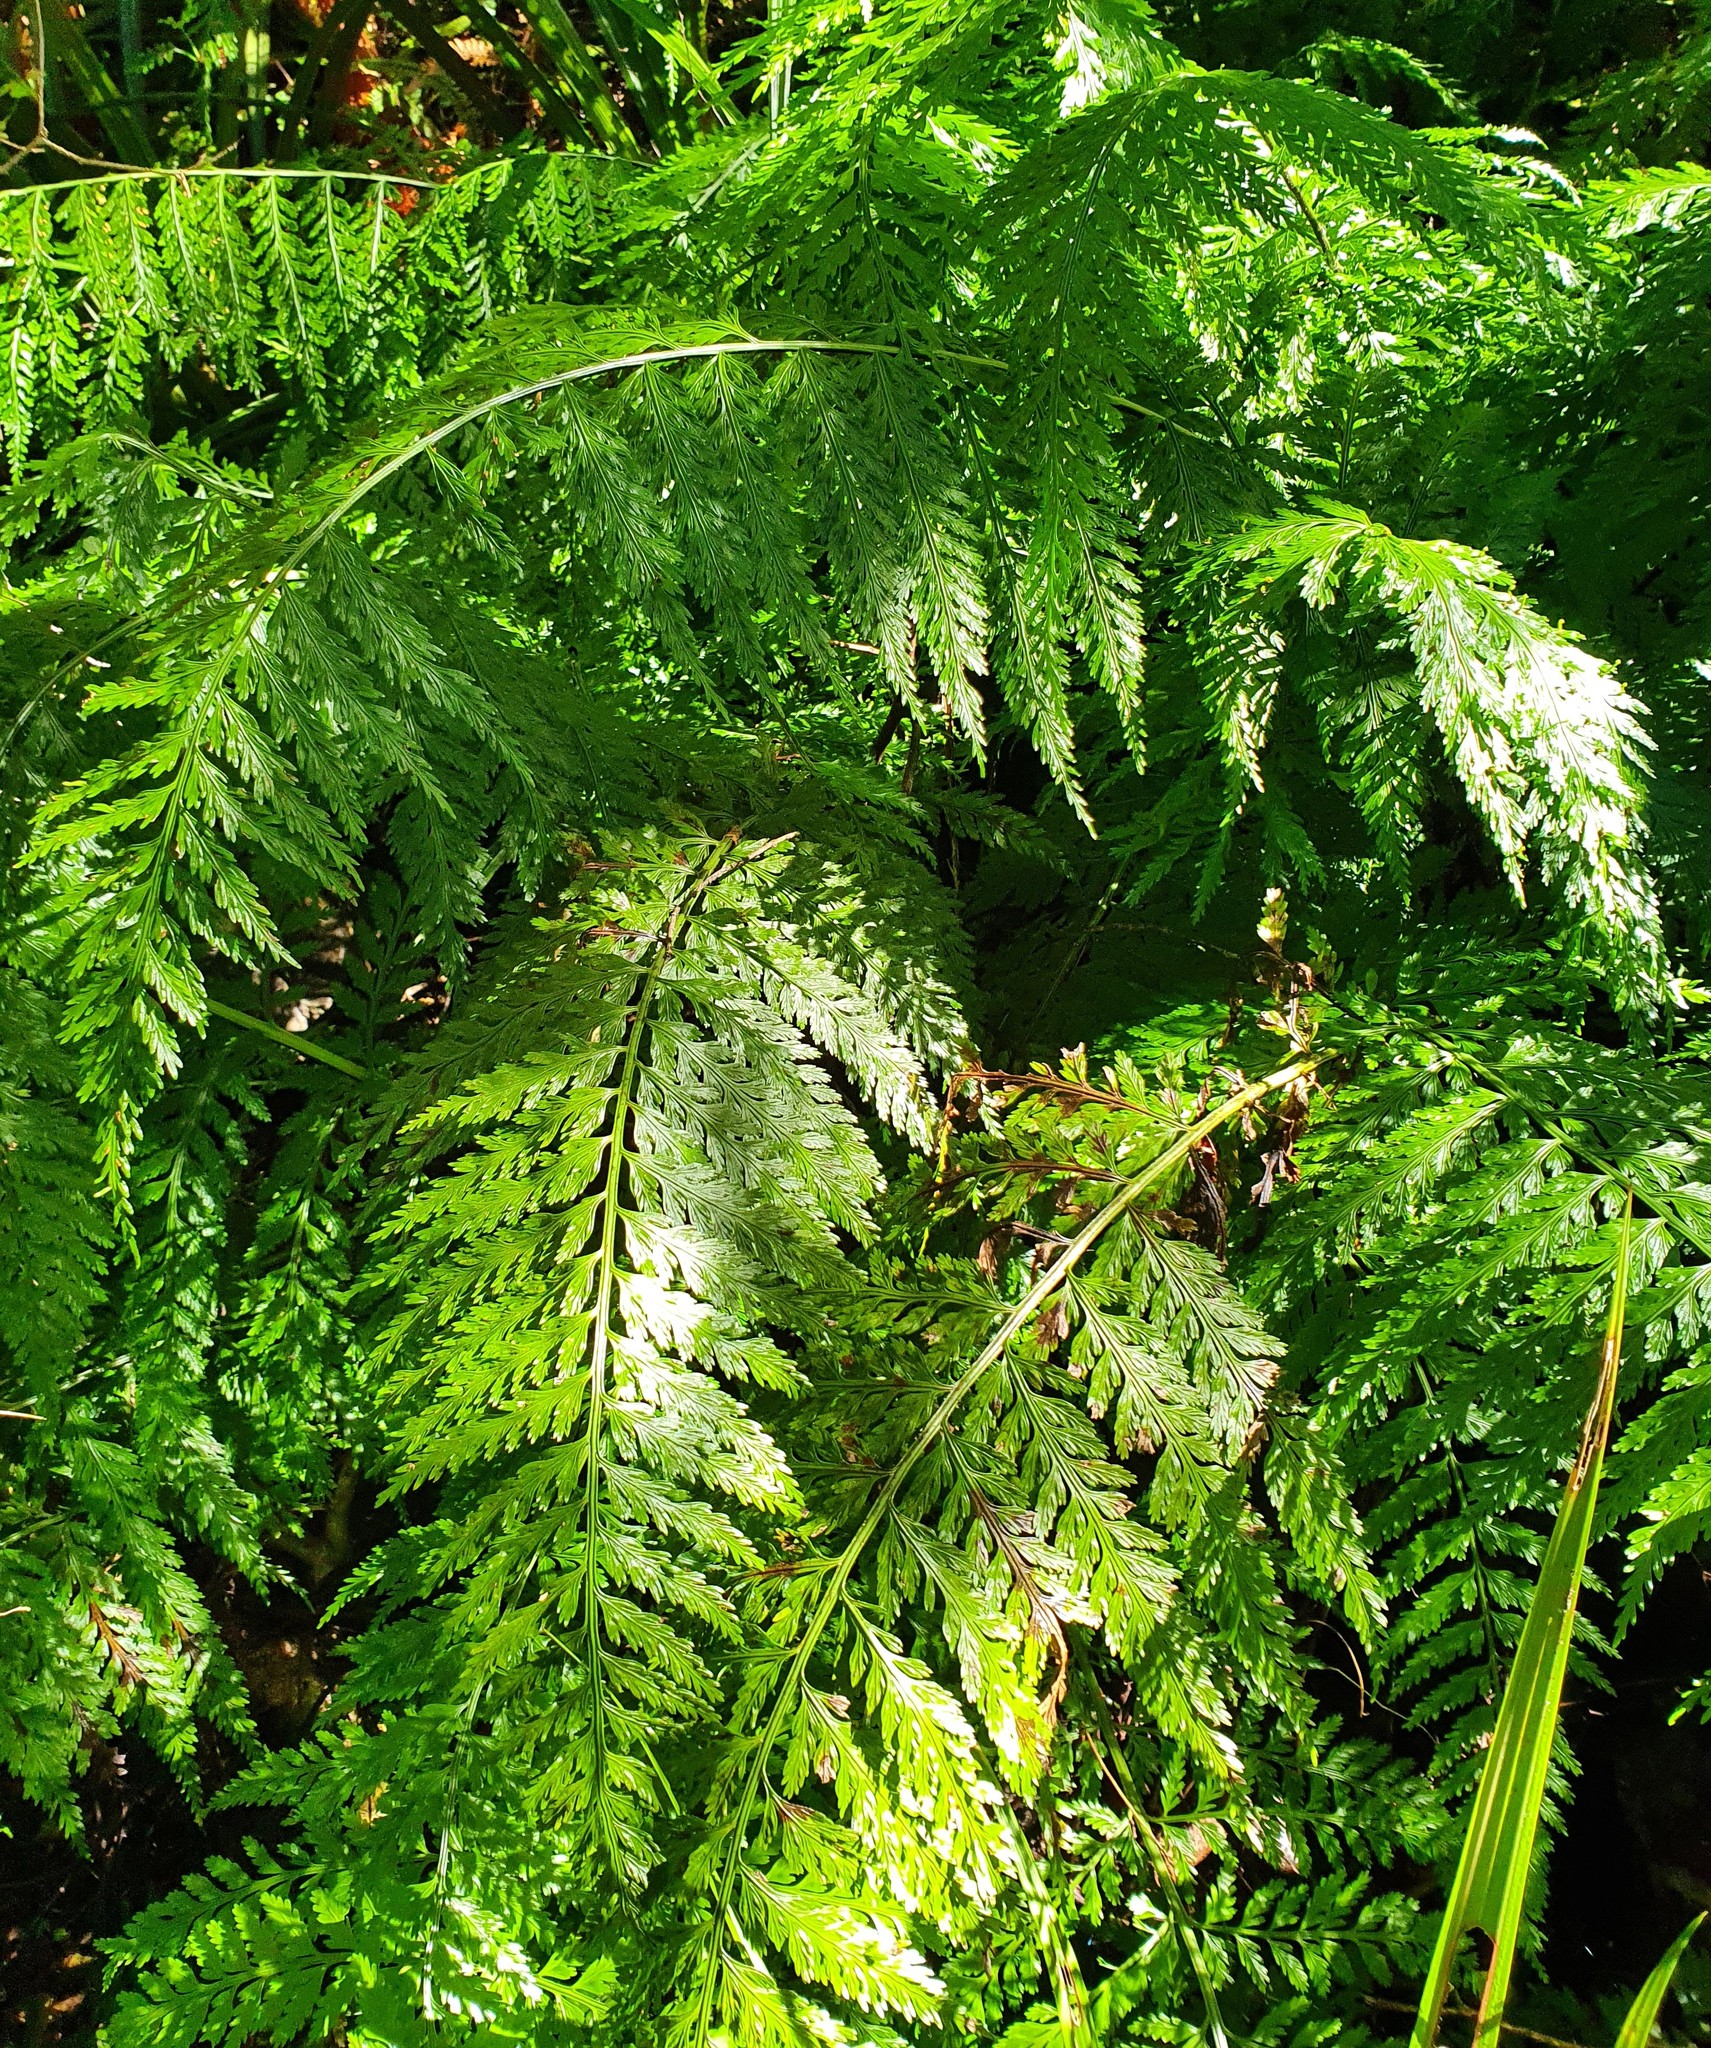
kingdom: Plantae
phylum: Tracheophyta
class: Polypodiopsida
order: Polypodiales
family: Aspleniaceae
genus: Asplenium
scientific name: Asplenium bulbiferum
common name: Mother fern
